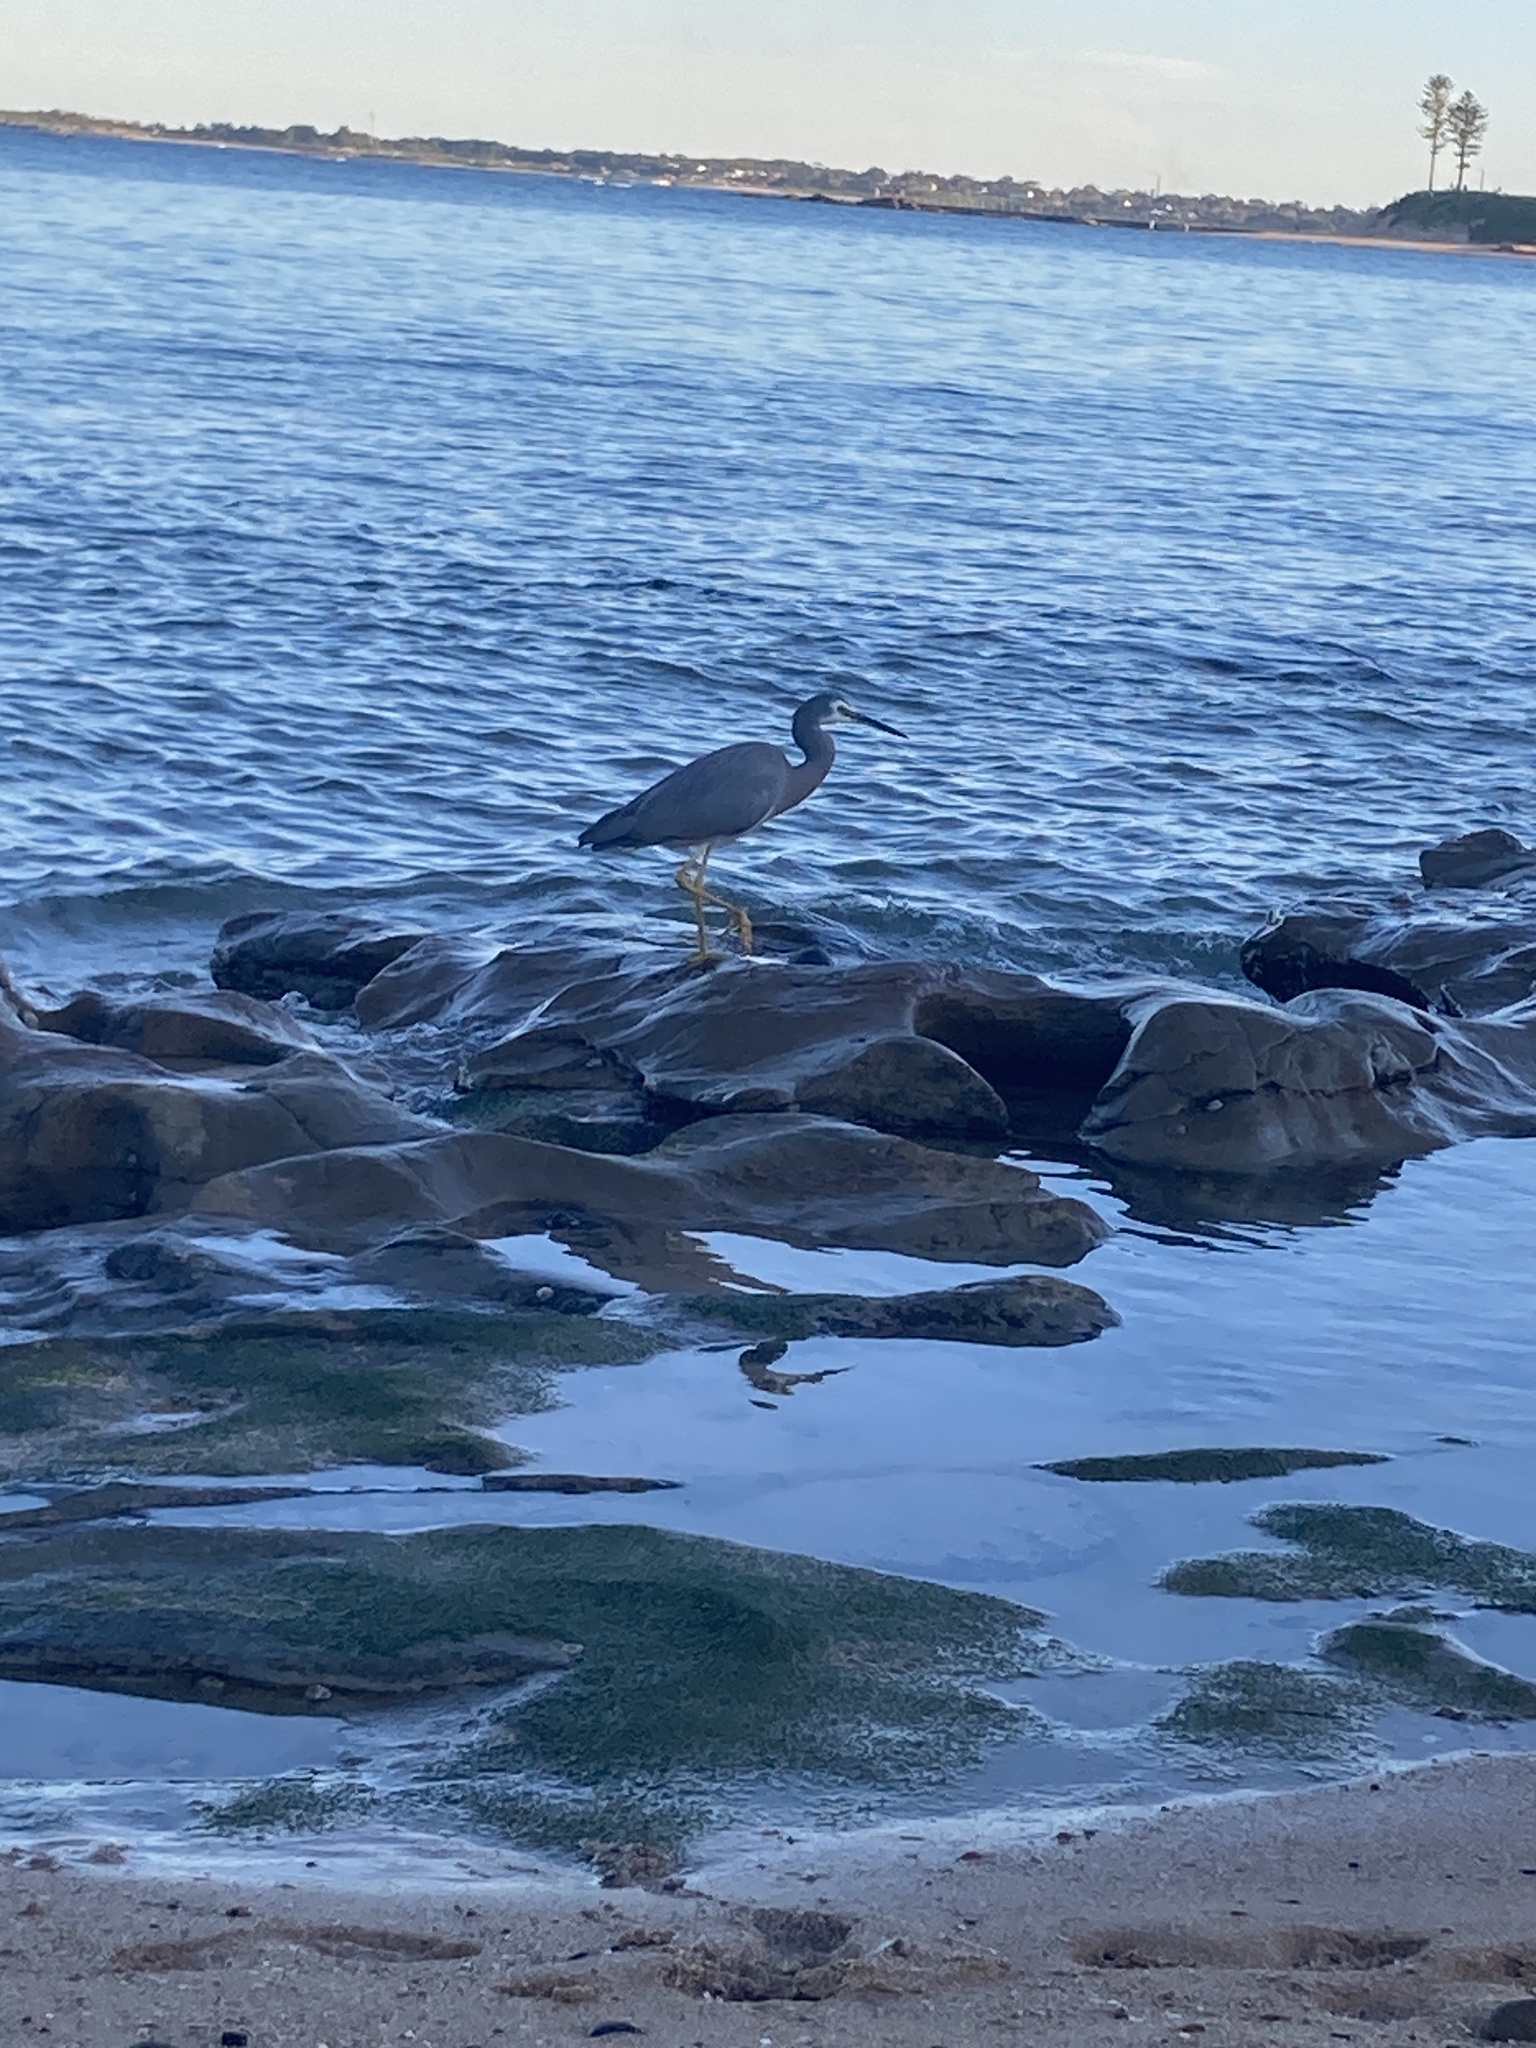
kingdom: Animalia
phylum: Chordata
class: Aves
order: Pelecaniformes
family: Ardeidae
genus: Egretta
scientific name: Egretta novaehollandiae
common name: White-faced heron
